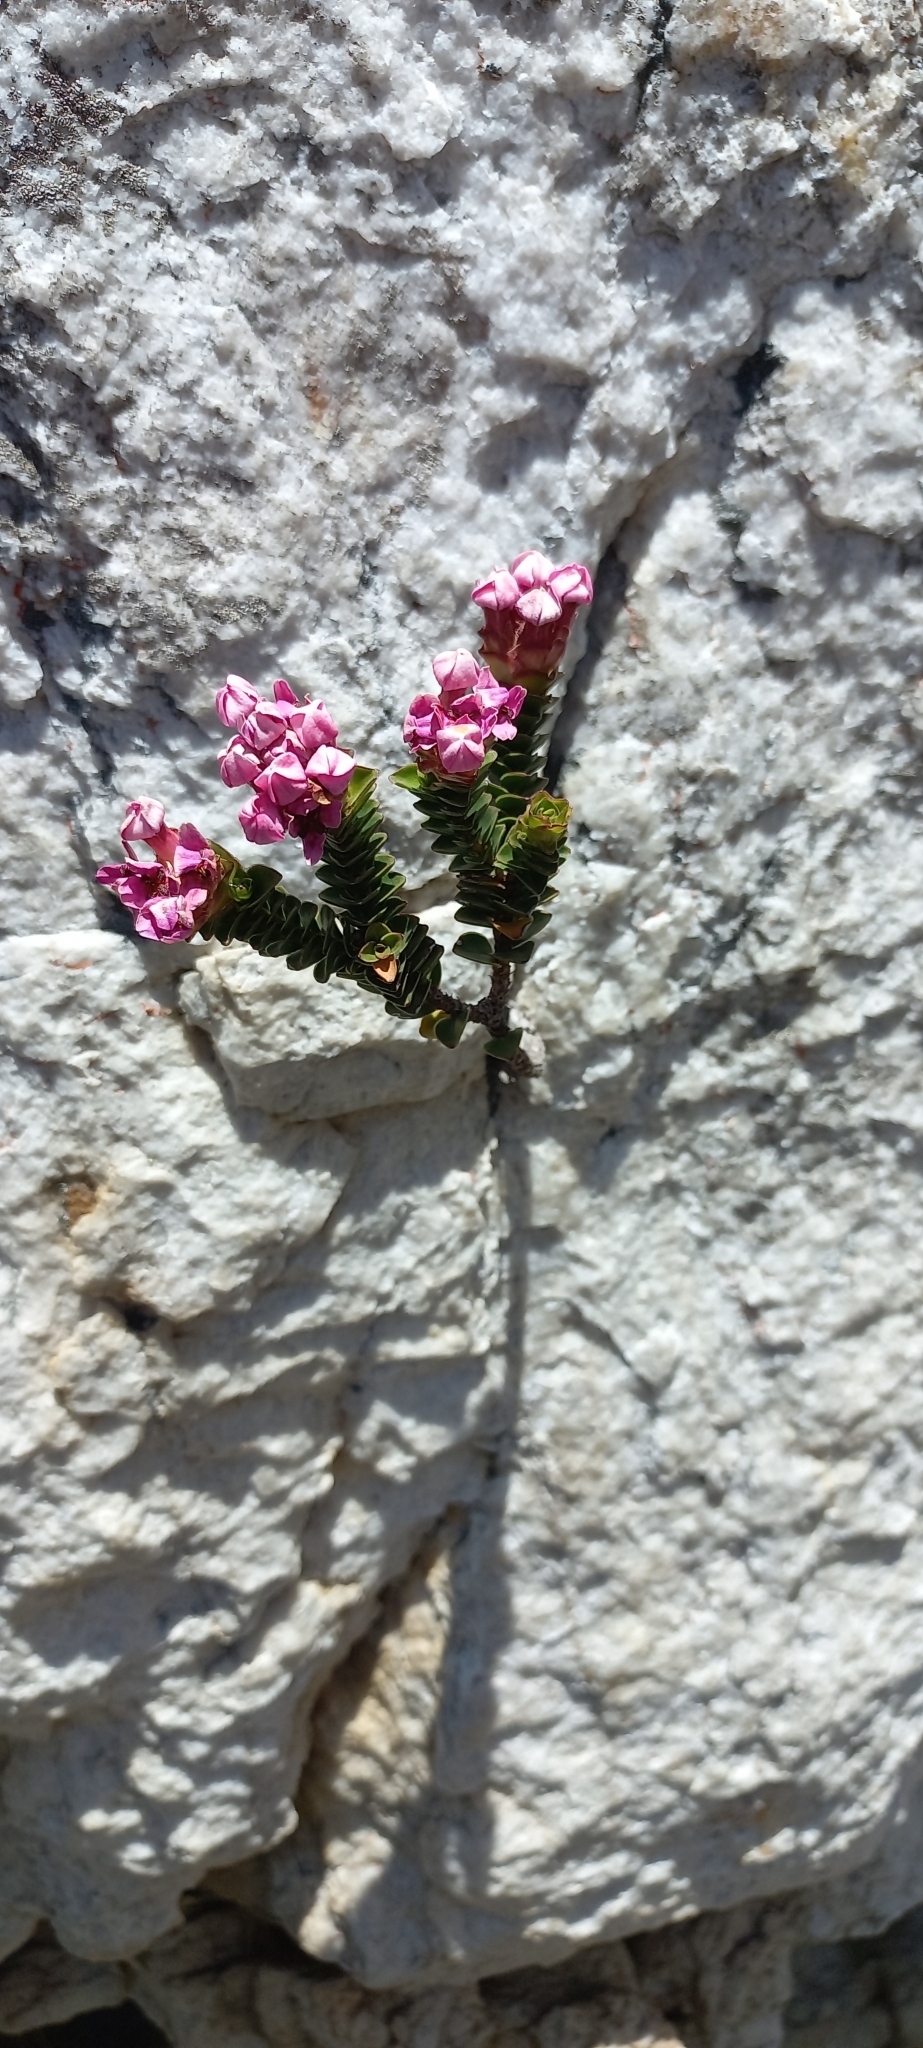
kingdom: Plantae
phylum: Tracheophyta
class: Magnoliopsida
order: Myrtales
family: Penaeaceae
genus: Sonderothamnus
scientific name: Sonderothamnus petraeus
